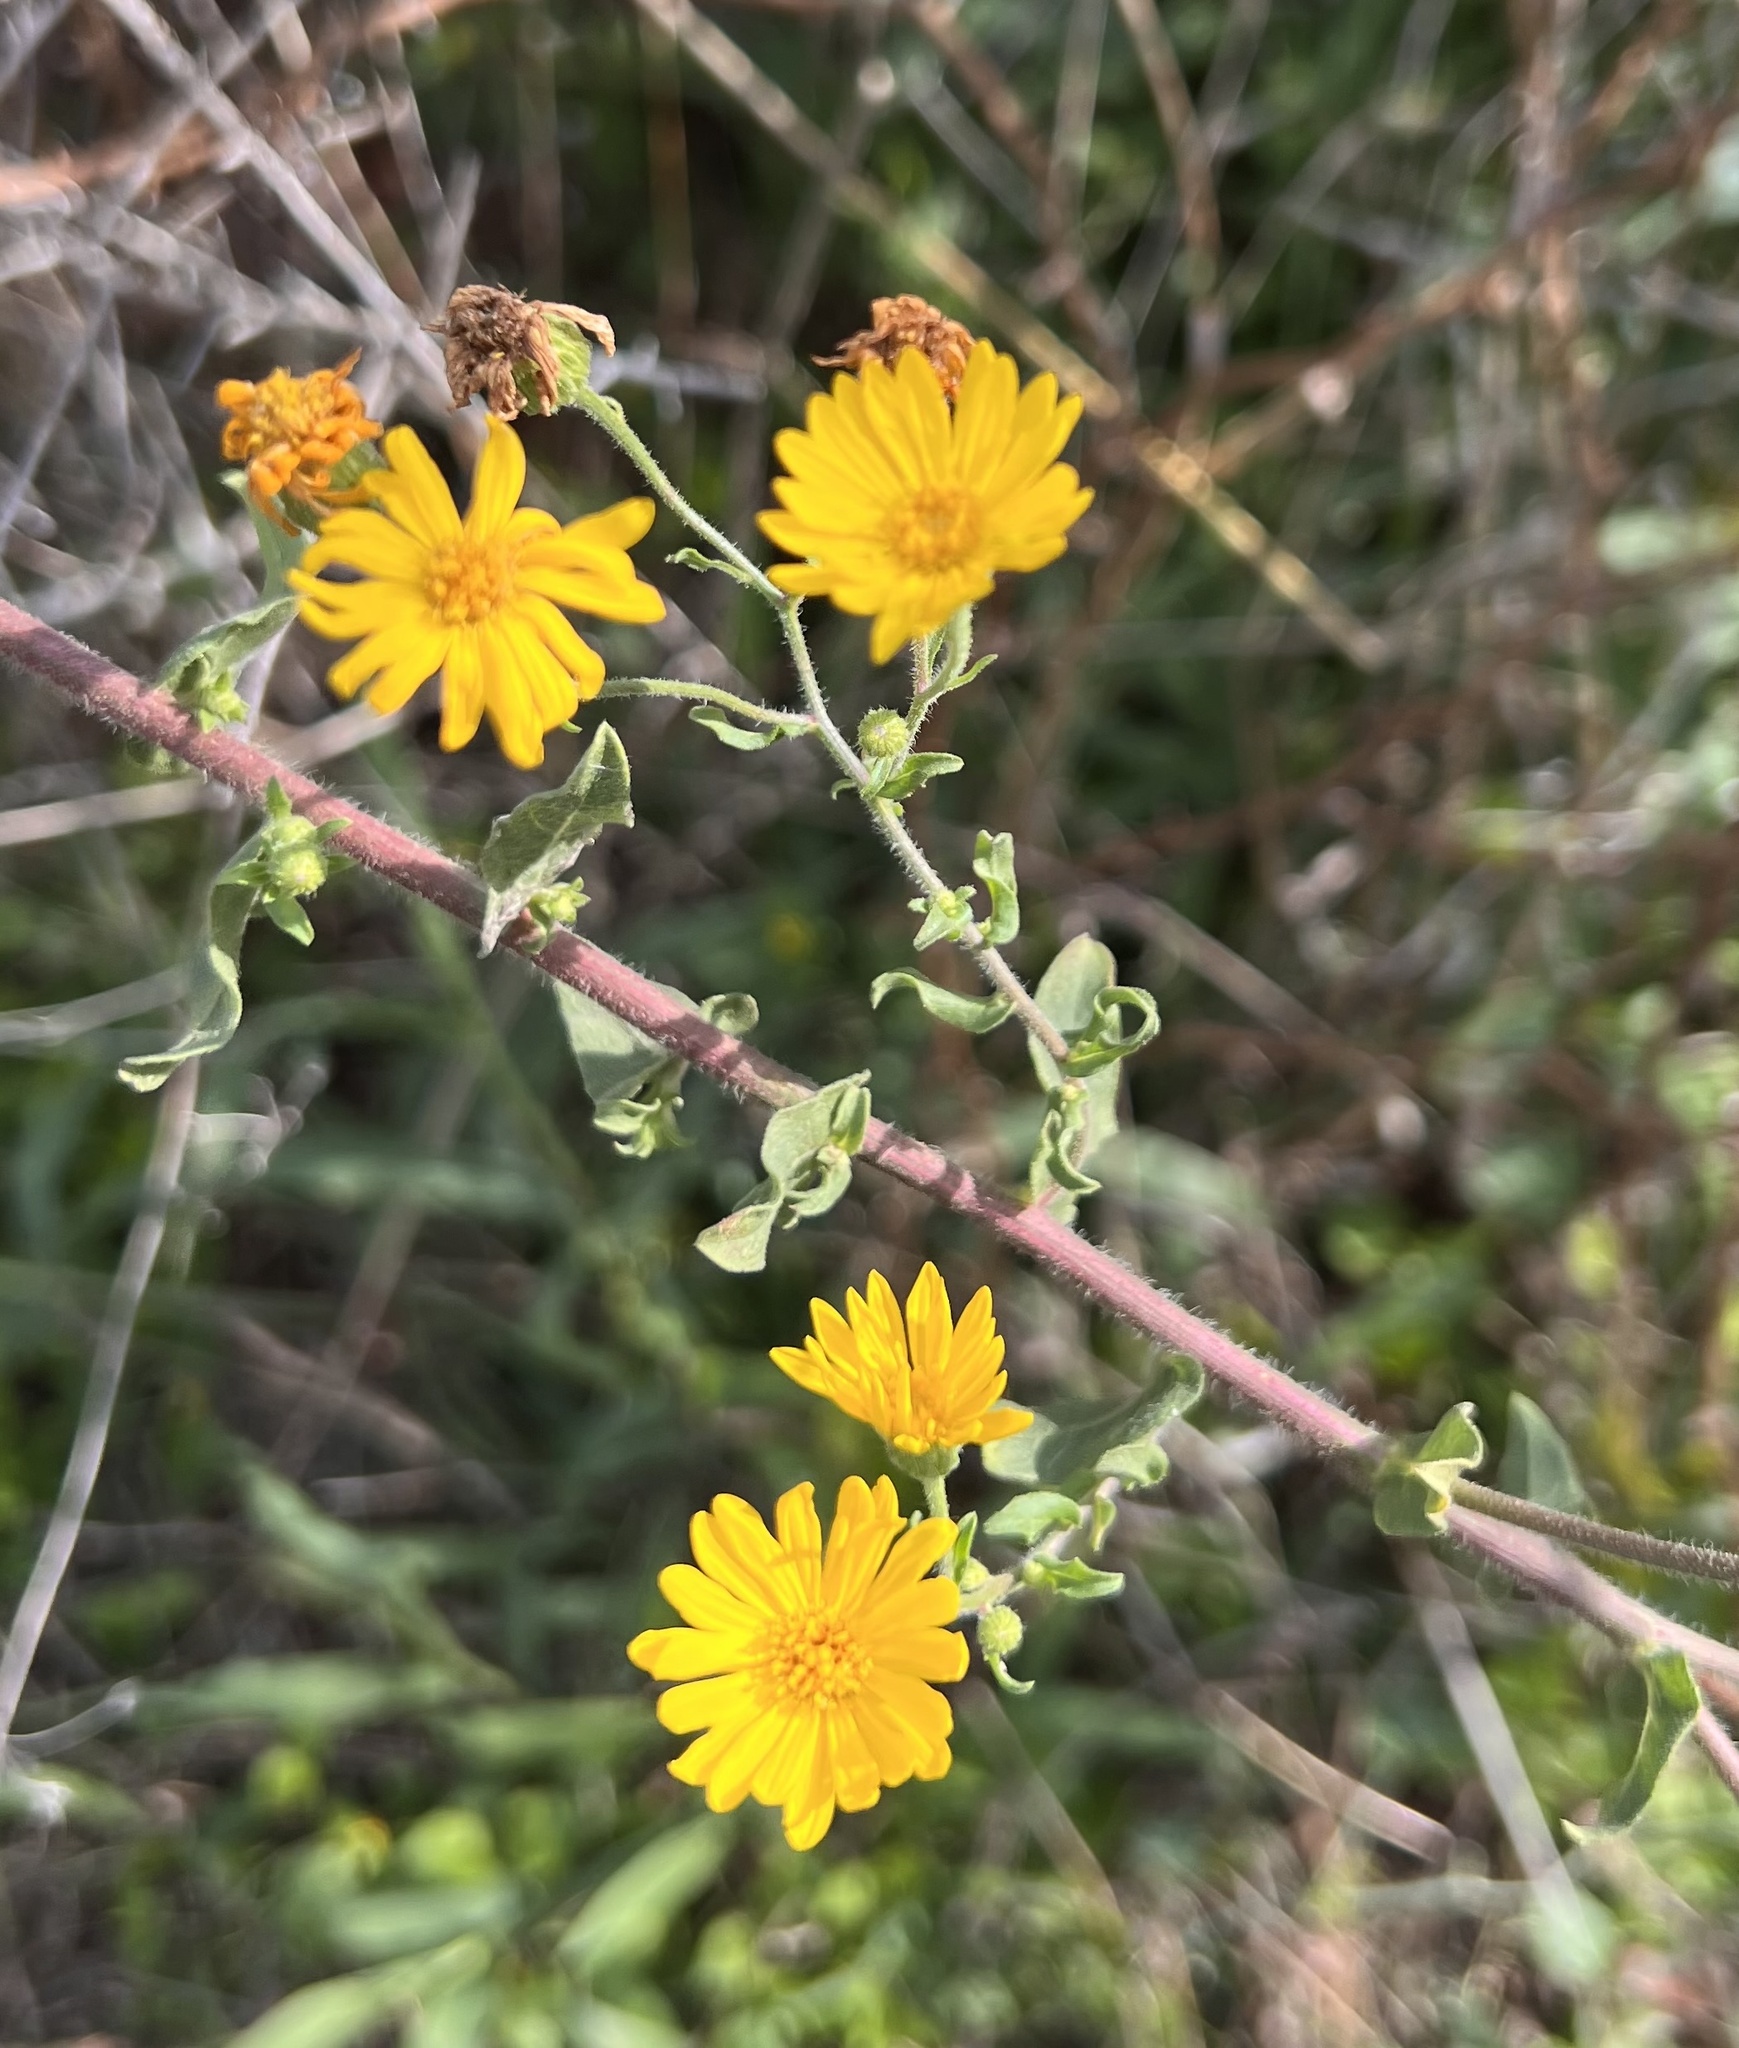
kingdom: Plantae
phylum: Tracheophyta
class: Magnoliopsida
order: Asterales
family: Asteraceae
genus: Heterotheca
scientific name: Heterotheca subaxillaris
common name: Camphorweed
